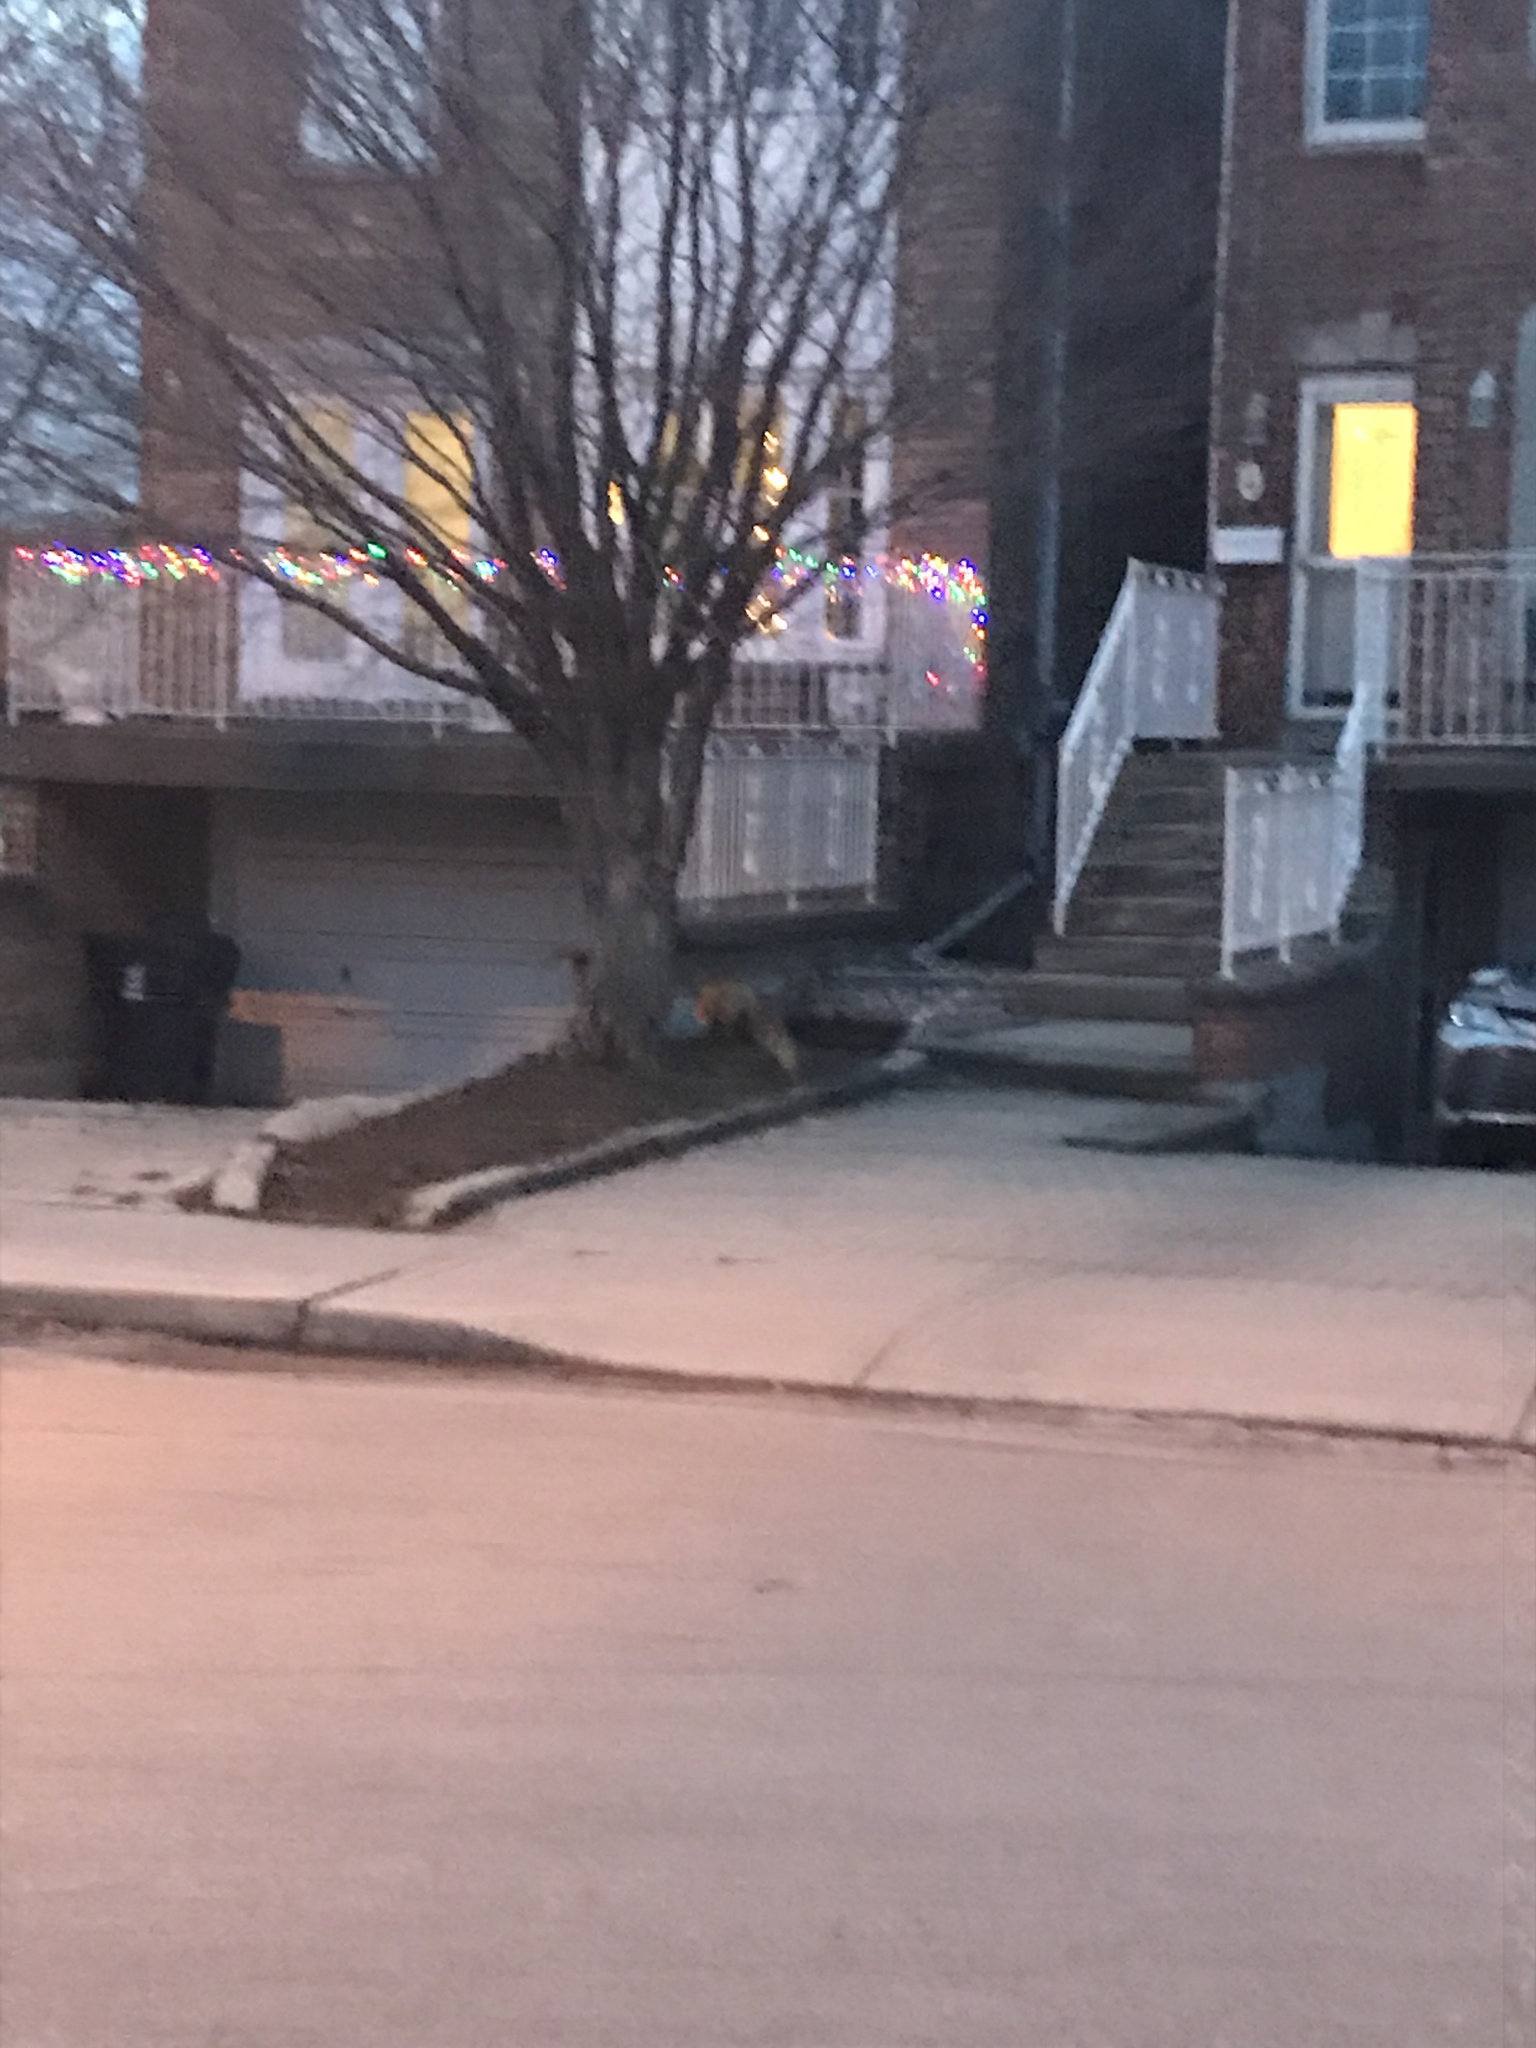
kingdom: Animalia
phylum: Chordata
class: Mammalia
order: Carnivora
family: Canidae
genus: Vulpes
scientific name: Vulpes vulpes
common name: Red fox
